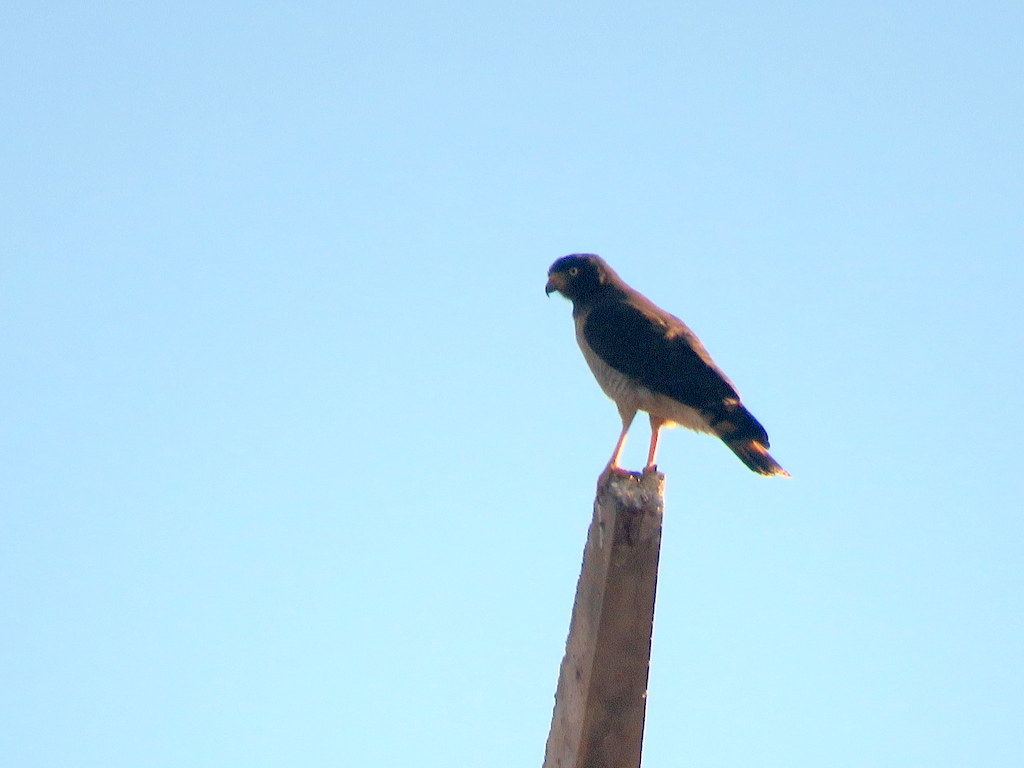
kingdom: Animalia
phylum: Chordata
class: Aves
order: Accipitriformes
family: Accipitridae
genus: Rupornis
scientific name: Rupornis magnirostris
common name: Roadside hawk
